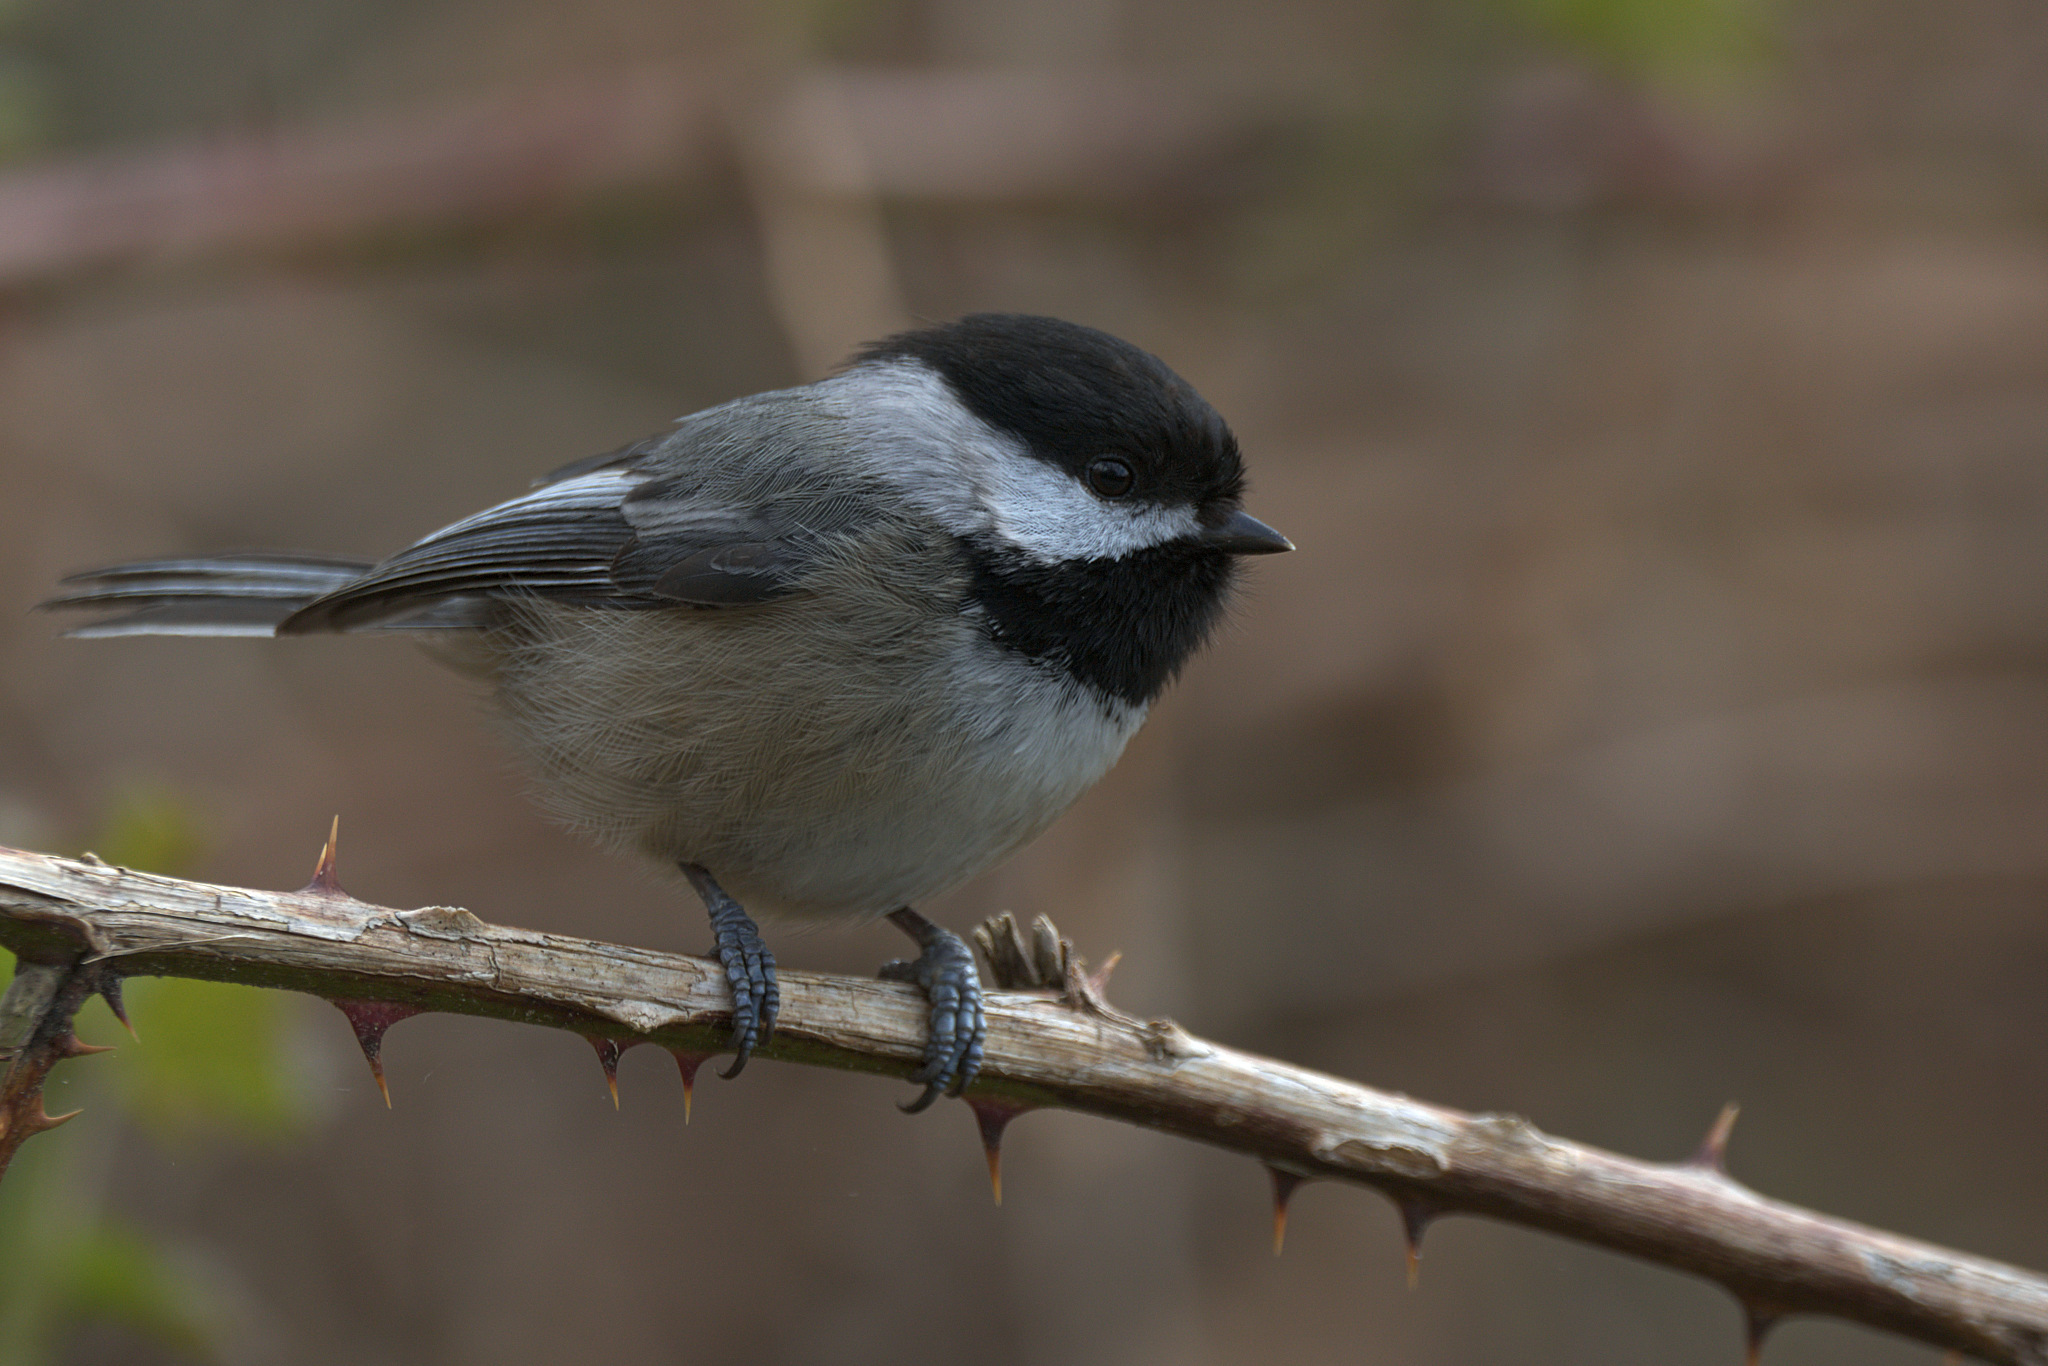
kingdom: Animalia
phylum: Chordata
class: Aves
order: Passeriformes
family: Paridae
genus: Poecile
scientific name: Poecile atricapillus
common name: Black-capped chickadee
